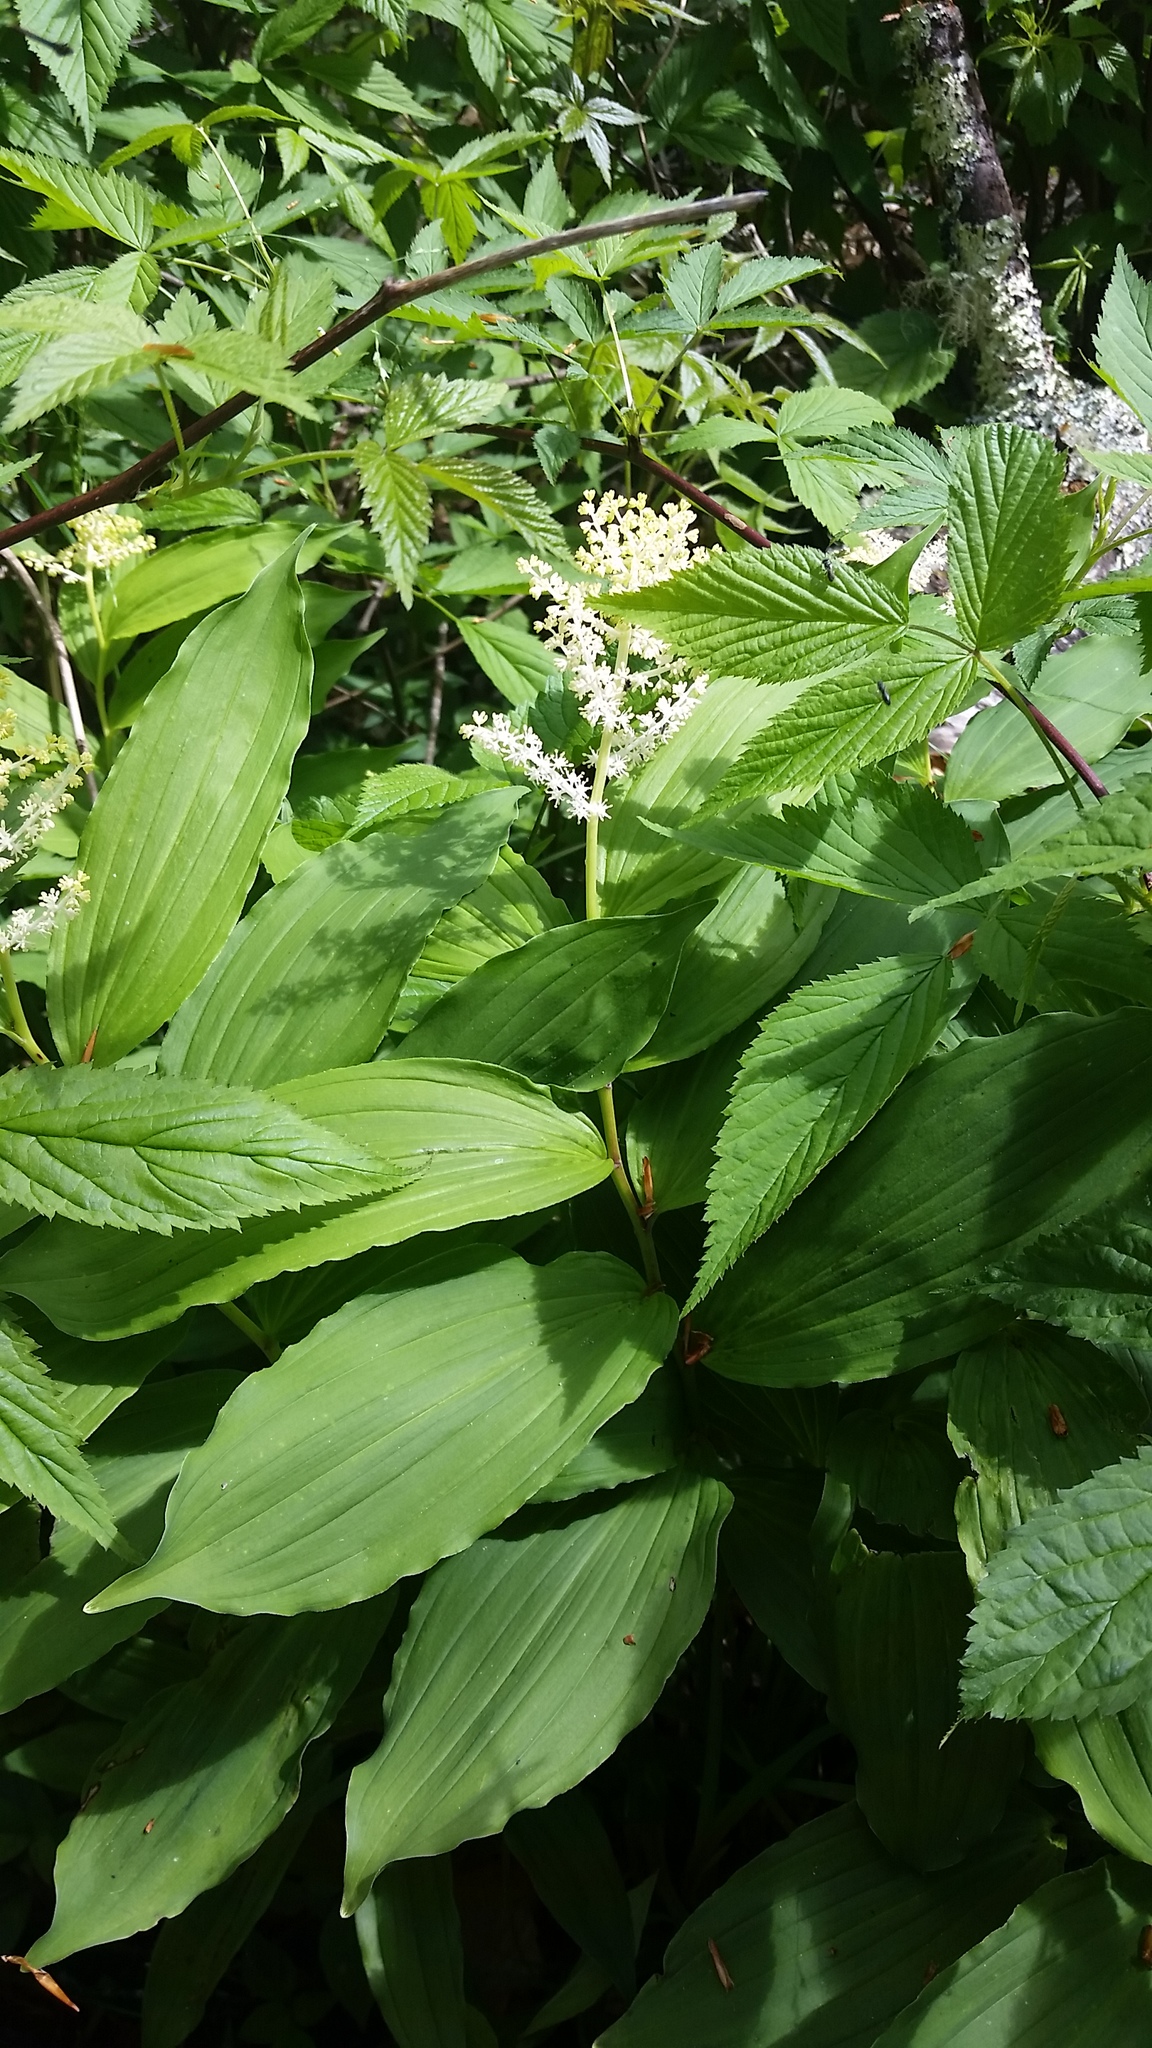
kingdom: Plantae
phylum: Tracheophyta
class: Liliopsida
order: Asparagales
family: Asparagaceae
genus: Maianthemum
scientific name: Maianthemum racemosum
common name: False spikenard
